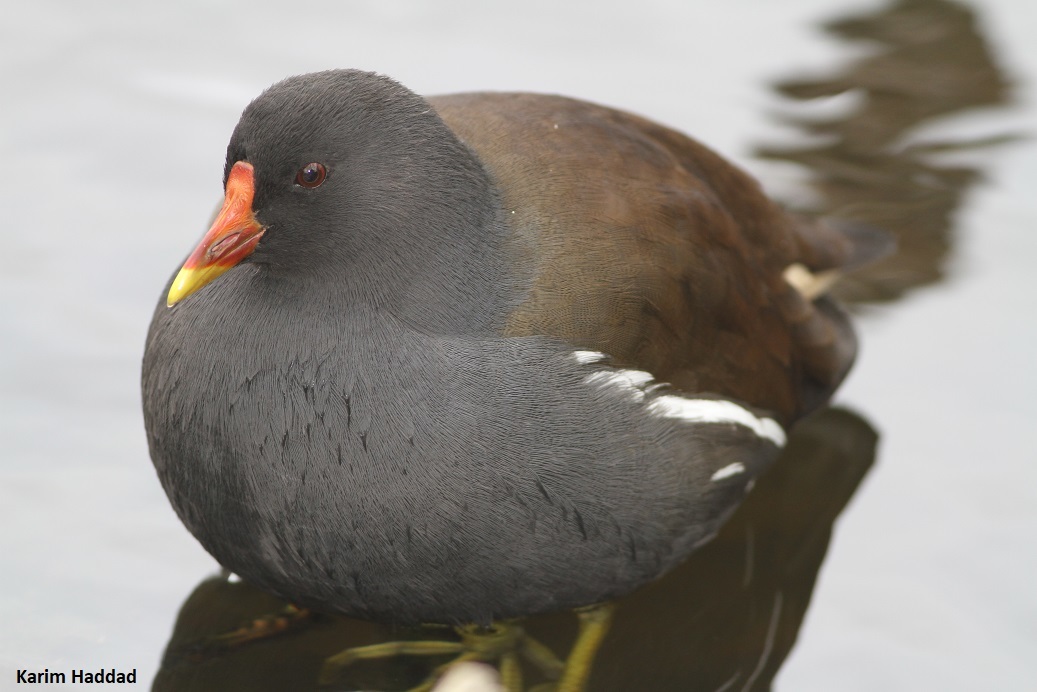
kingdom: Animalia
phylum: Chordata
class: Aves
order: Gruiformes
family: Rallidae
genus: Gallinula
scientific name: Gallinula chloropus
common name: Common moorhen
